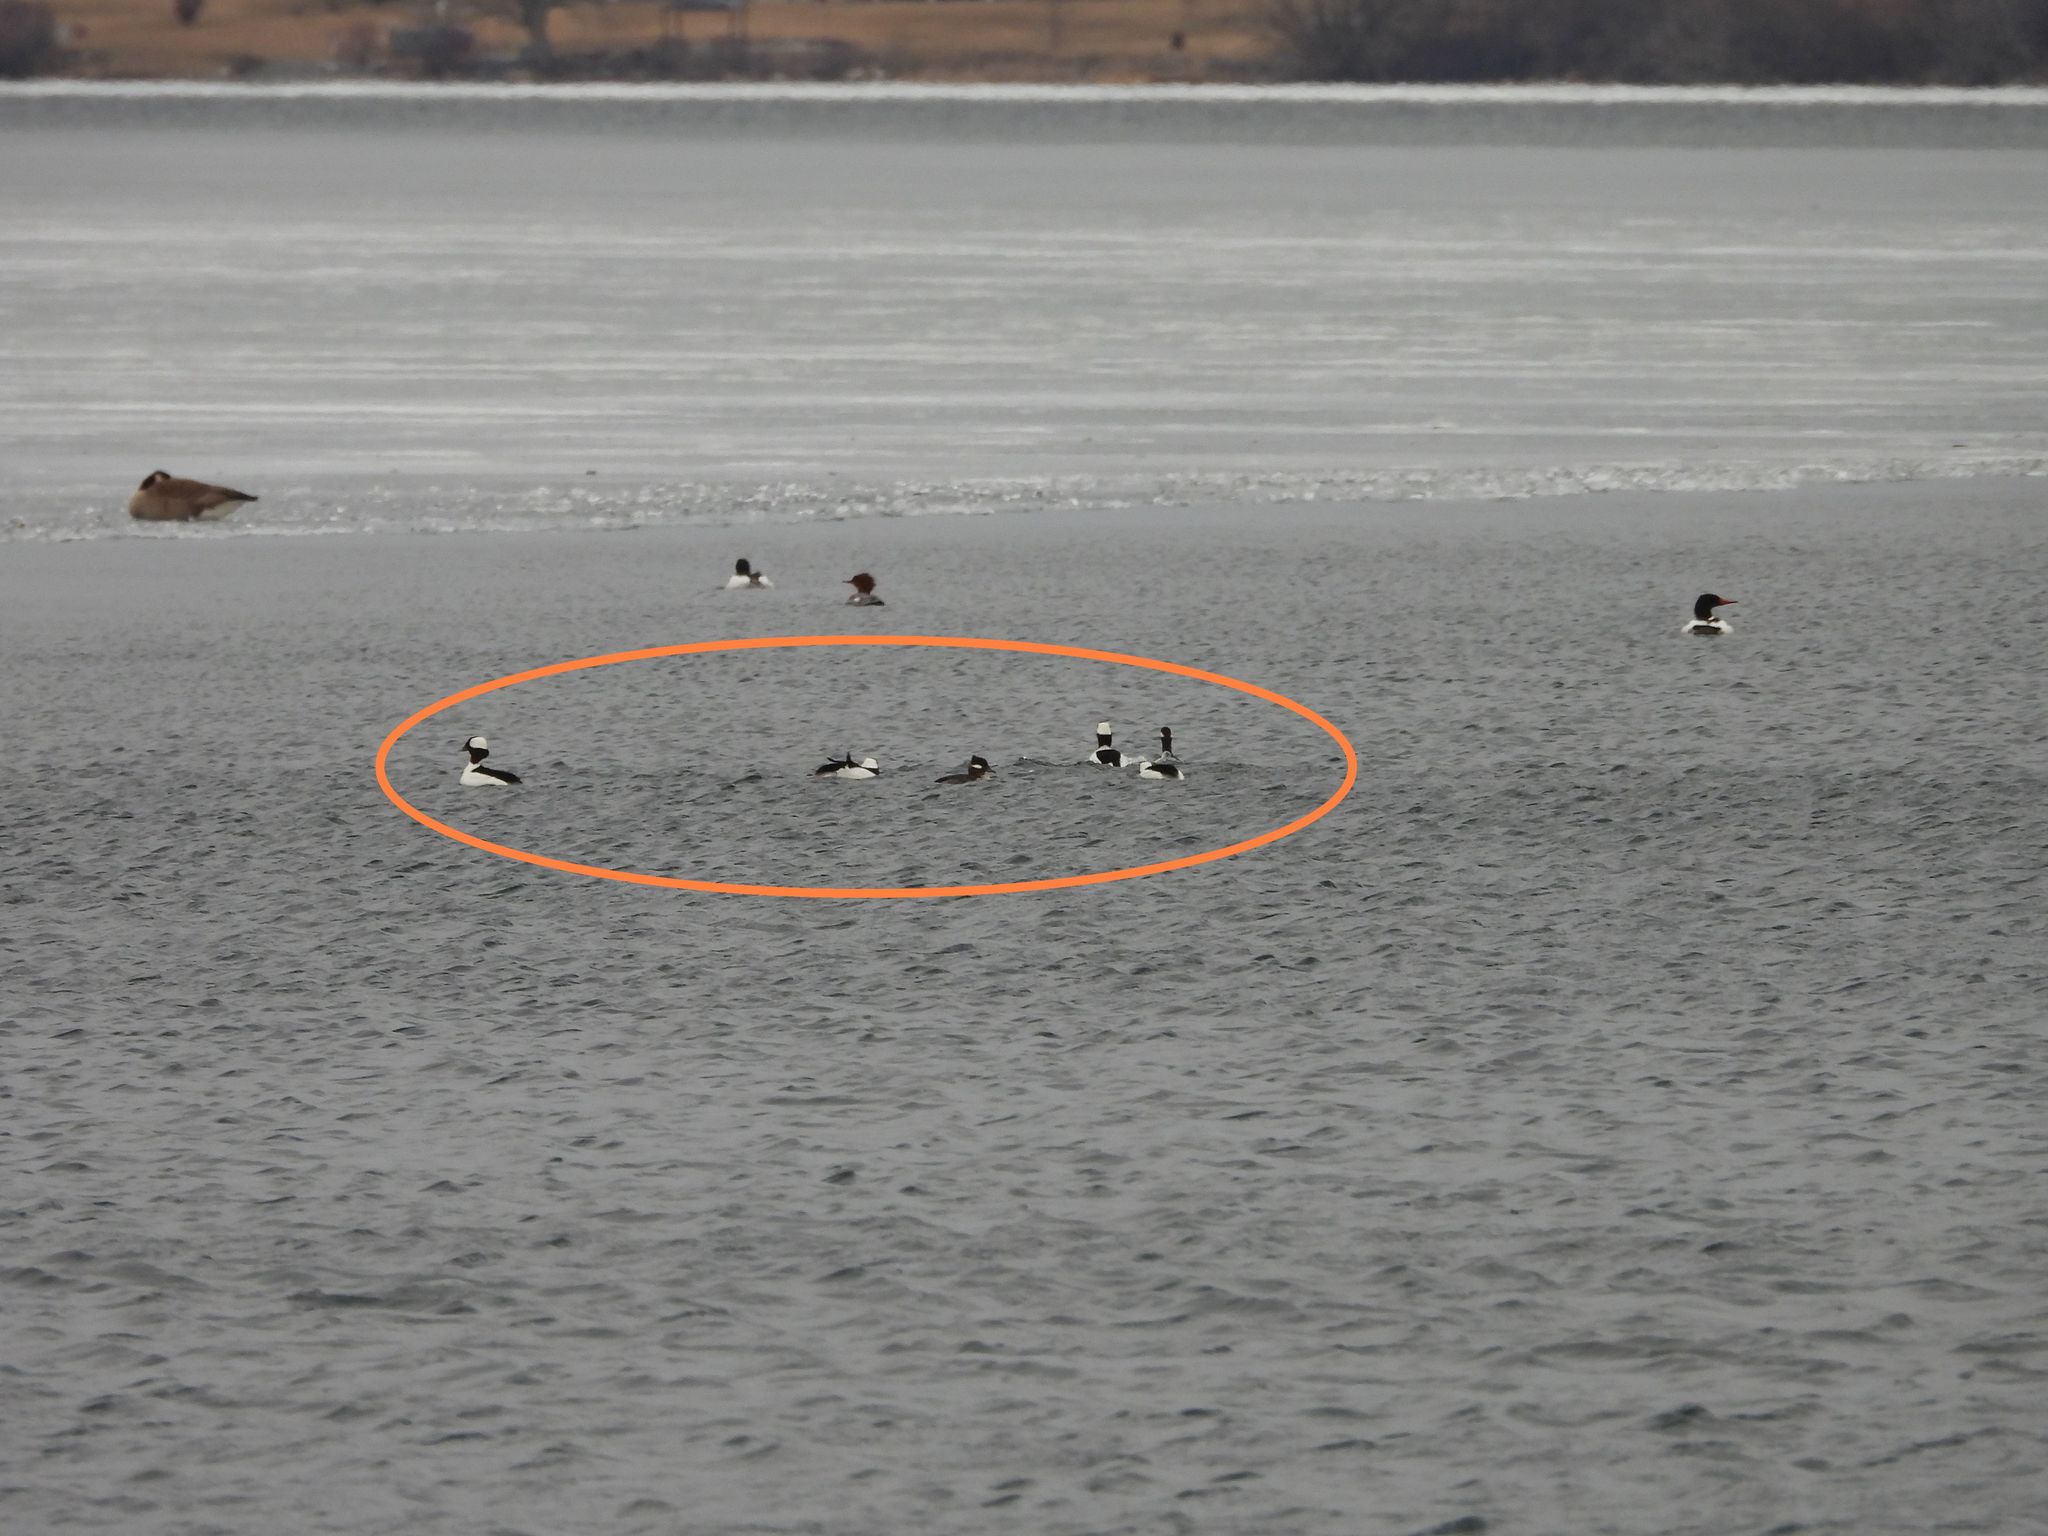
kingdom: Animalia
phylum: Chordata
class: Aves
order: Anseriformes
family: Anatidae
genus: Bucephala
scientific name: Bucephala albeola
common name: Bufflehead
